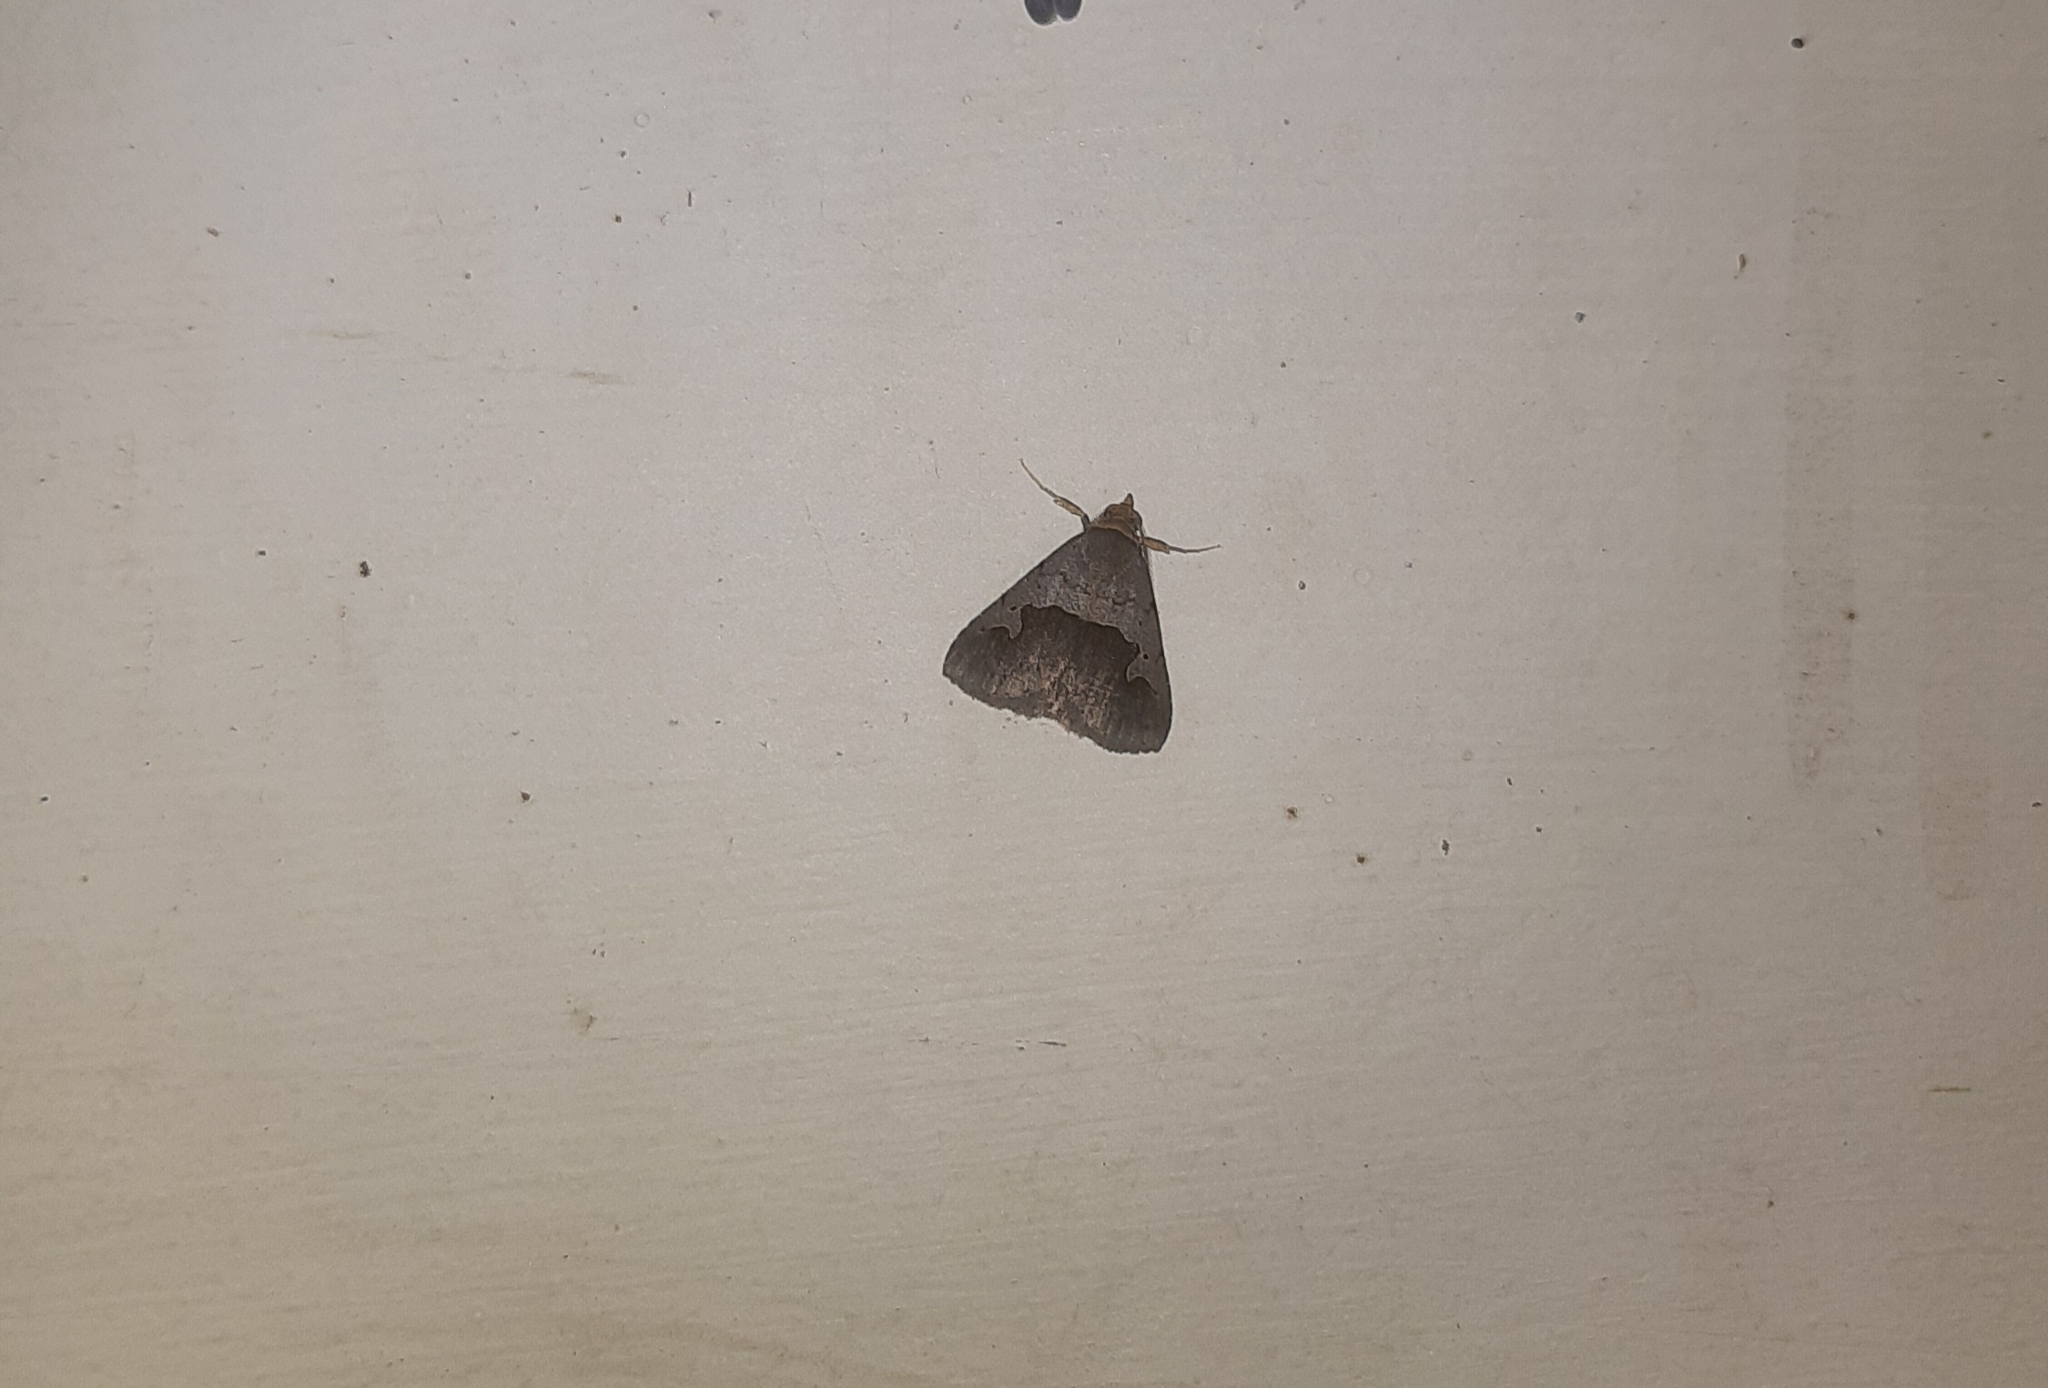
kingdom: Animalia
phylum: Arthropoda
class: Insecta
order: Lepidoptera
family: Erebidae
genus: Baniana
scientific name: Baniana semilugens
